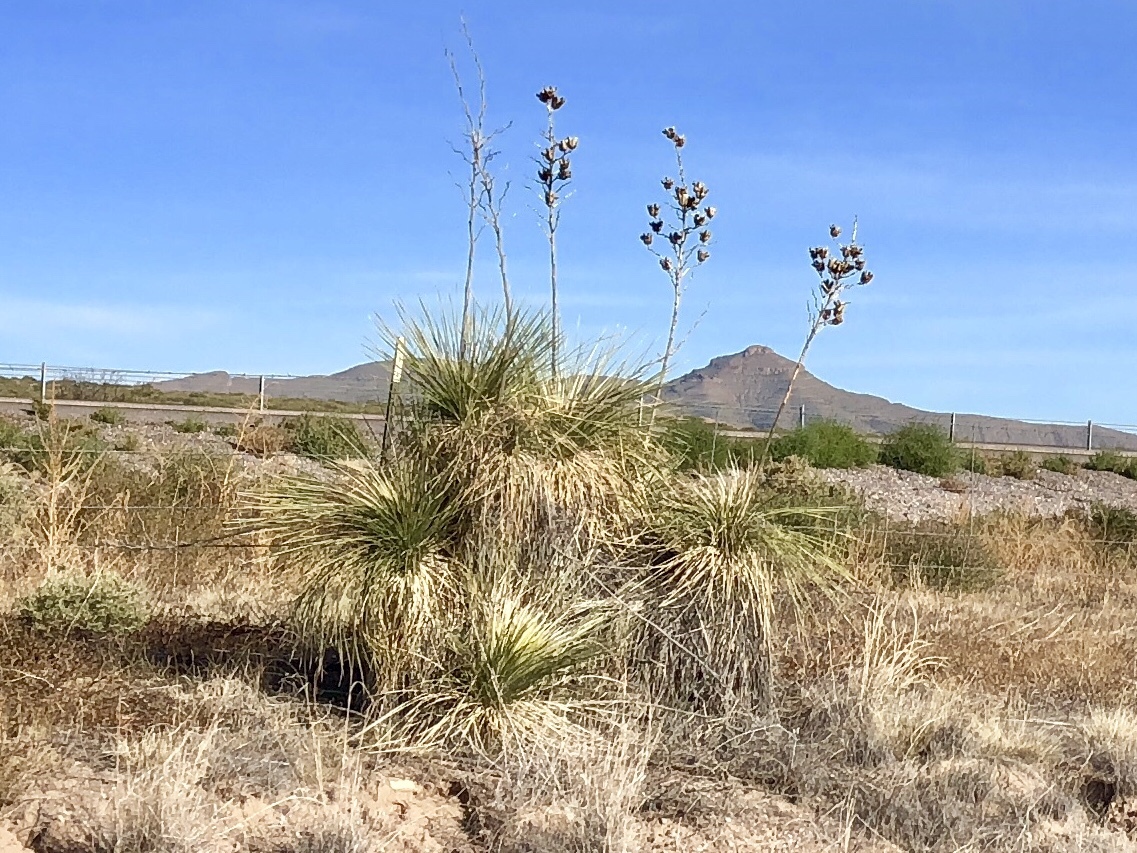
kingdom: Plantae
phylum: Tracheophyta
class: Liliopsida
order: Asparagales
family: Asparagaceae
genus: Yucca
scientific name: Yucca elata
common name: Palmella
